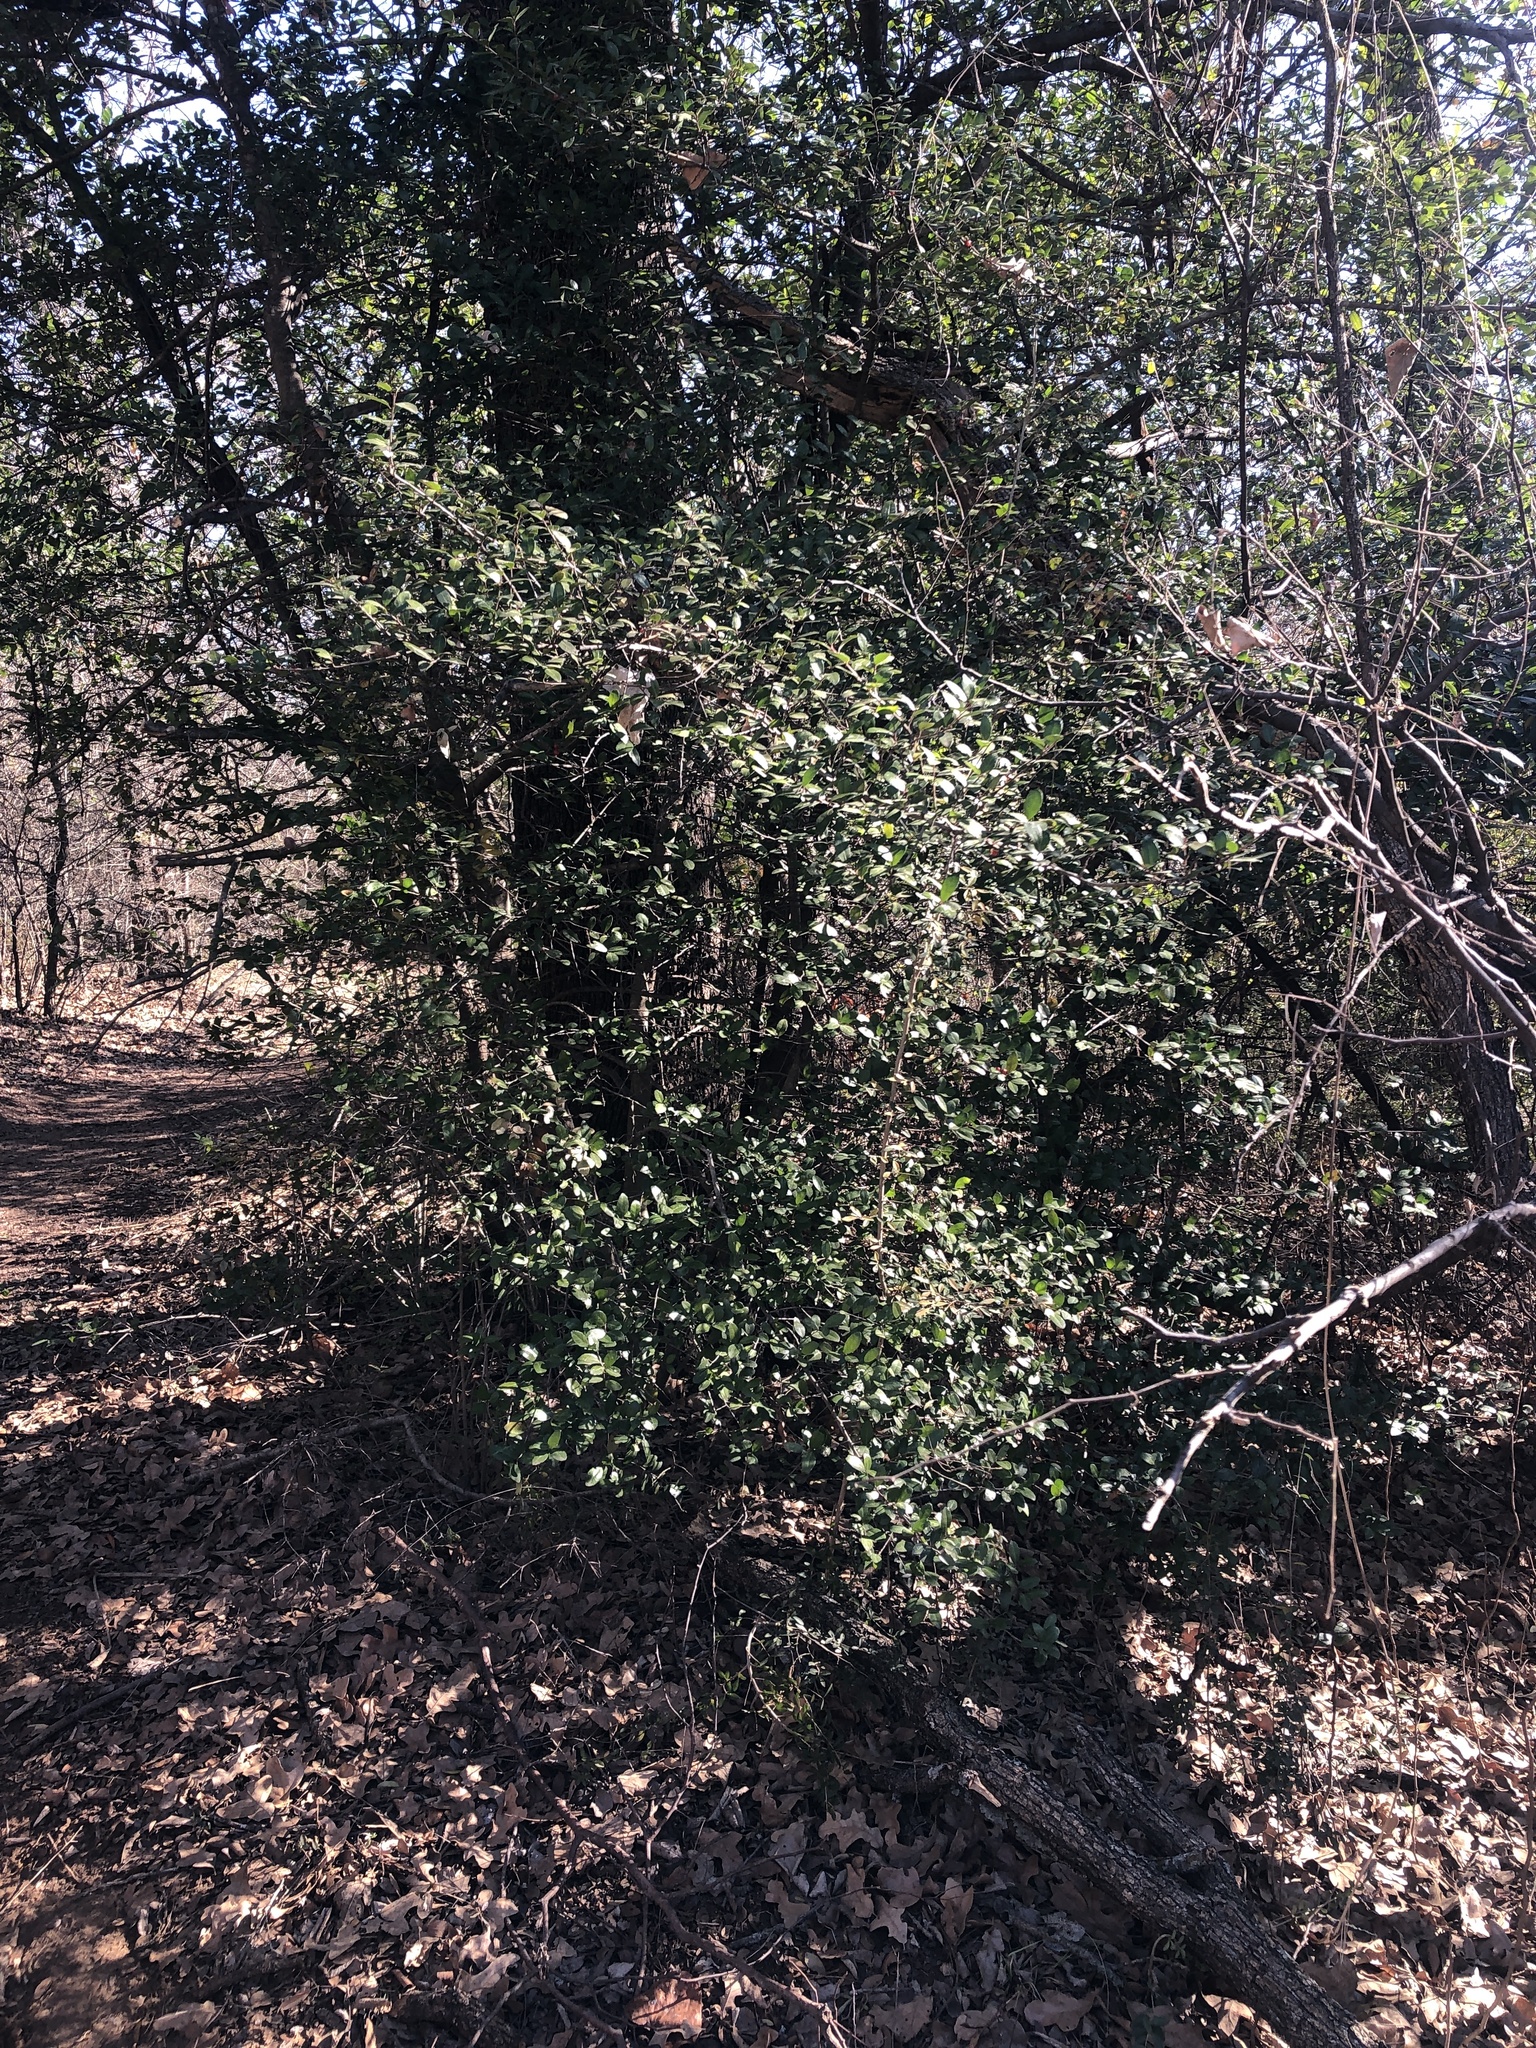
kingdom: Plantae
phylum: Tracheophyta
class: Magnoliopsida
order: Aquifoliales
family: Aquifoliaceae
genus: Ilex
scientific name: Ilex vomitoria
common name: Yaupon holly
